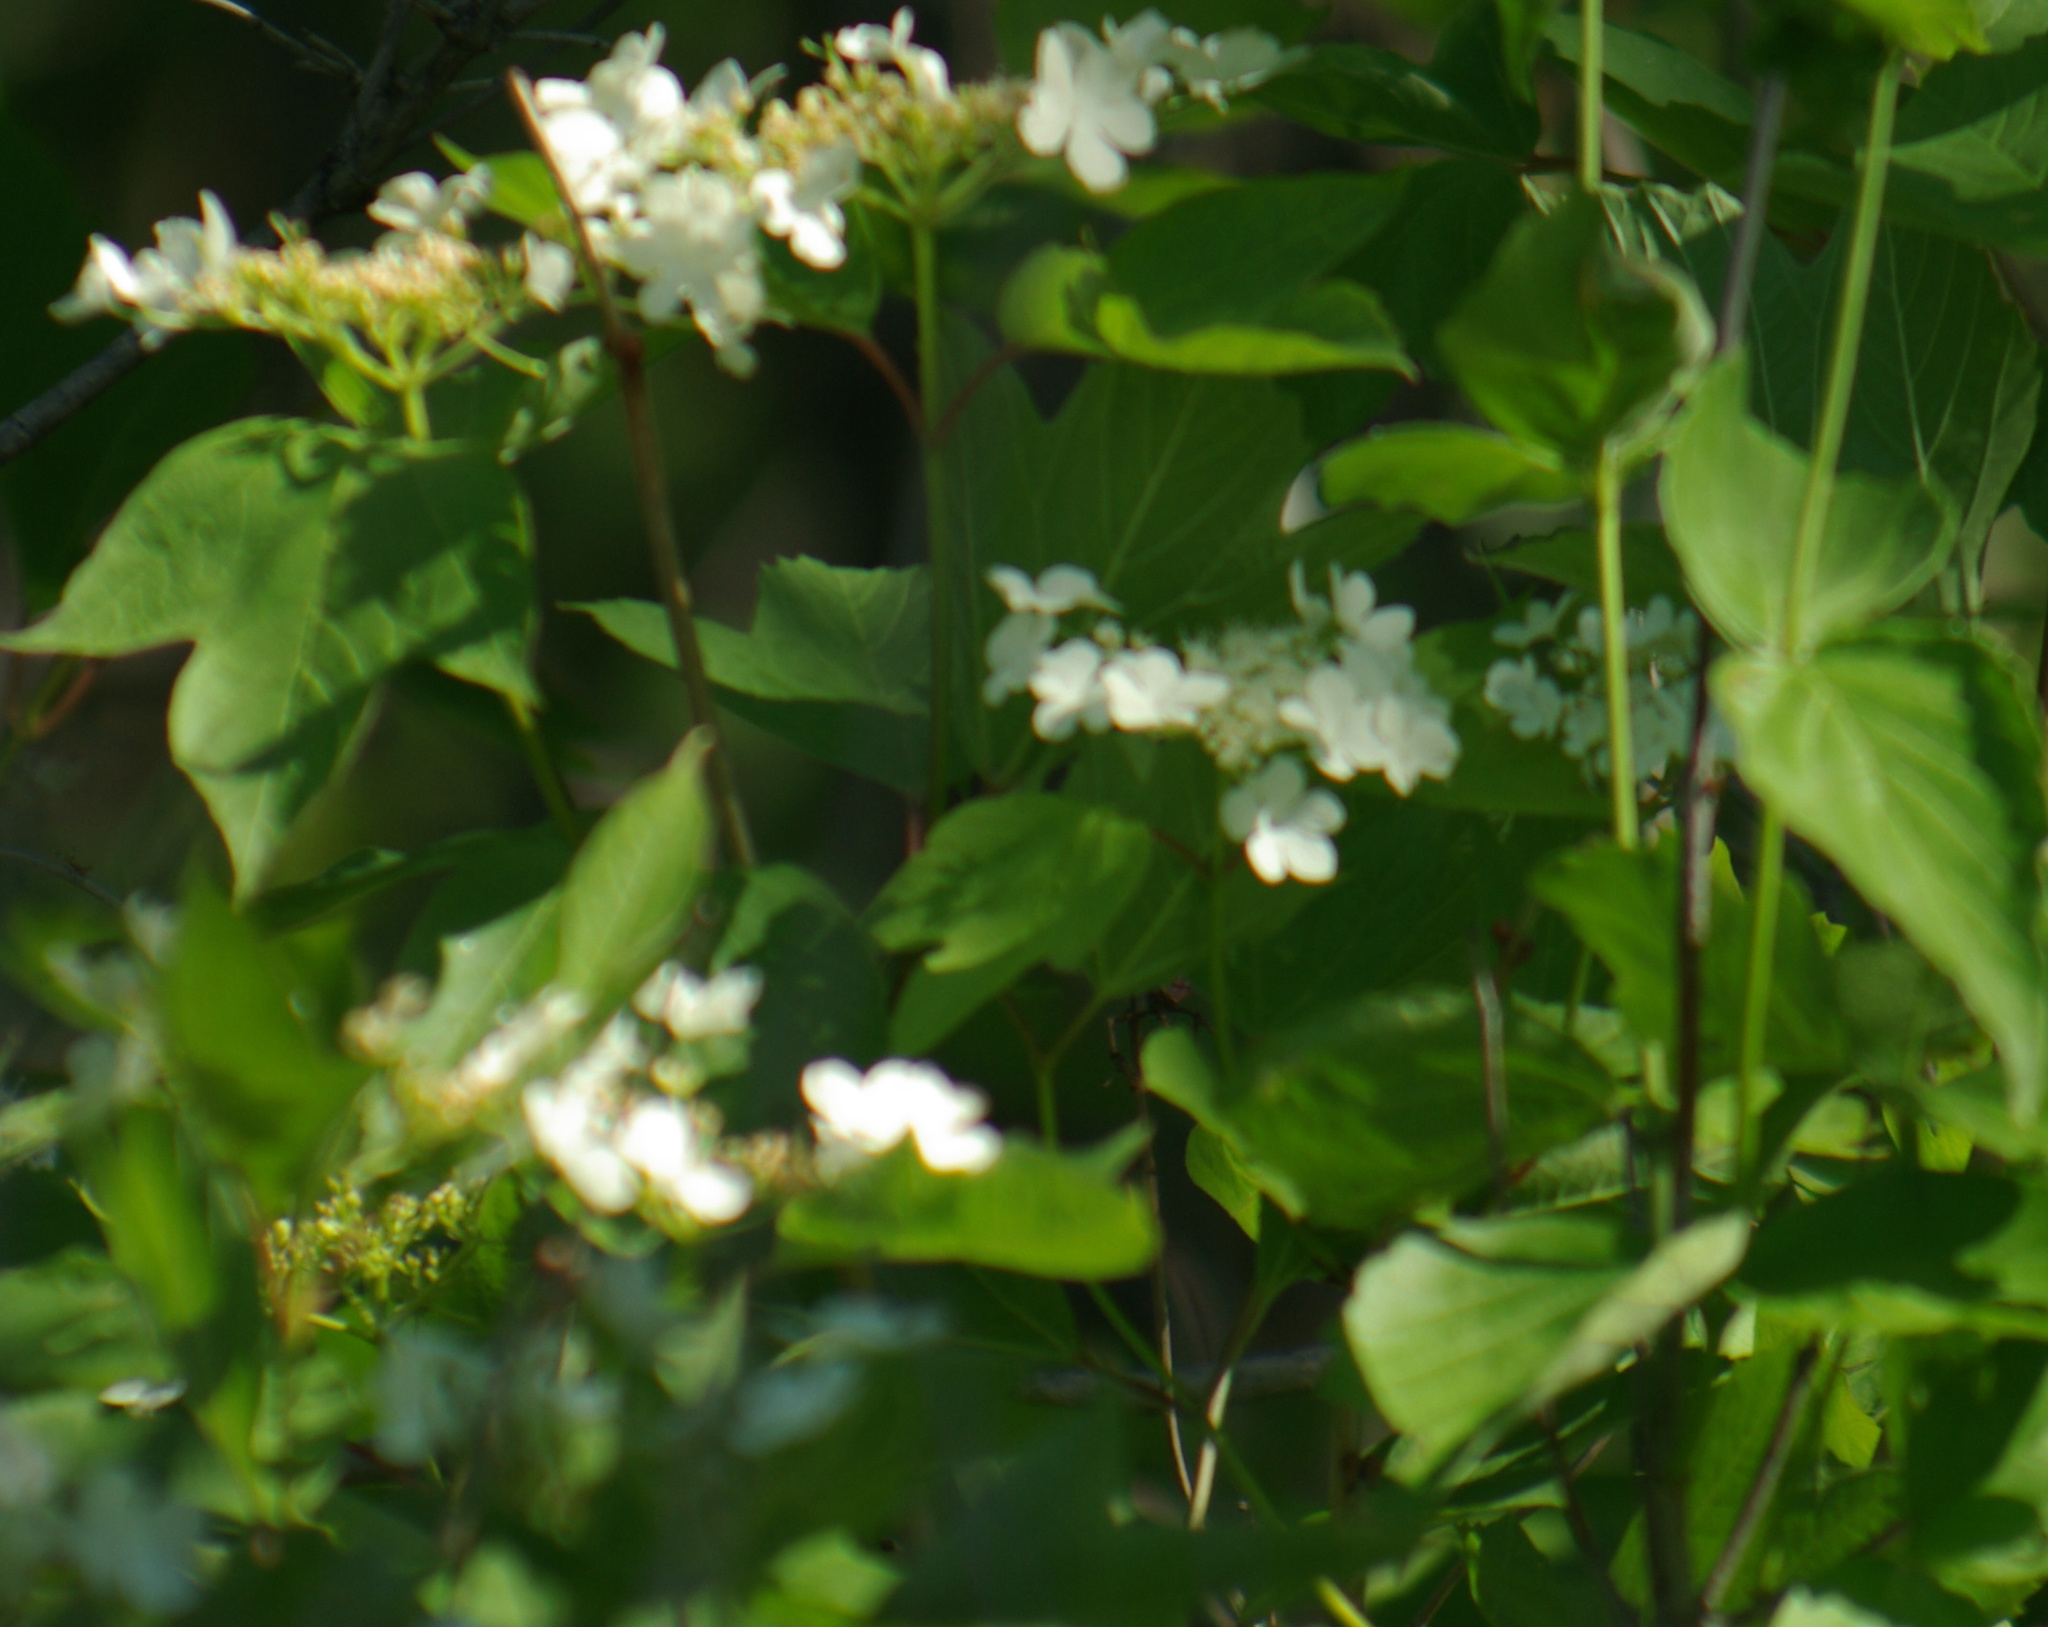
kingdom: Plantae
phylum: Tracheophyta
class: Magnoliopsida
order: Dipsacales
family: Viburnaceae
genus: Viburnum
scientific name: Viburnum opulus
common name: Guelder-rose
